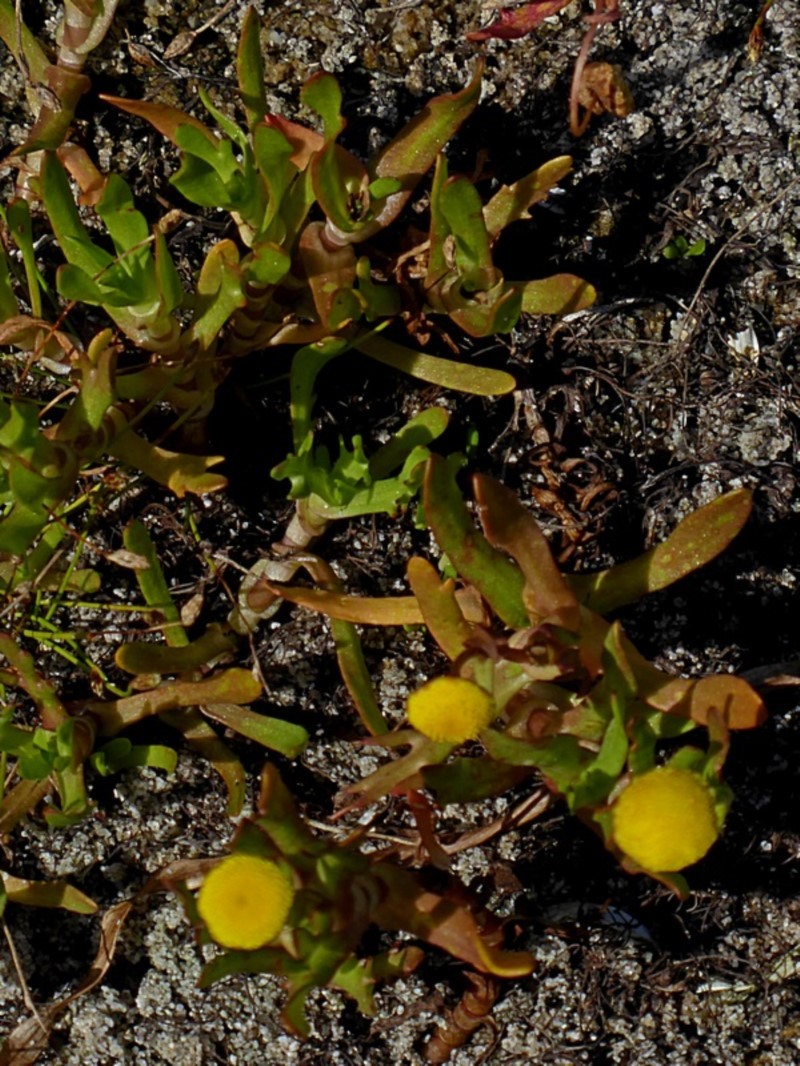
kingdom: Plantae
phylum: Tracheophyta
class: Magnoliopsida
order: Asterales
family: Asteraceae
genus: Cotula
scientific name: Cotula coronopifolia
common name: Buttonweed
